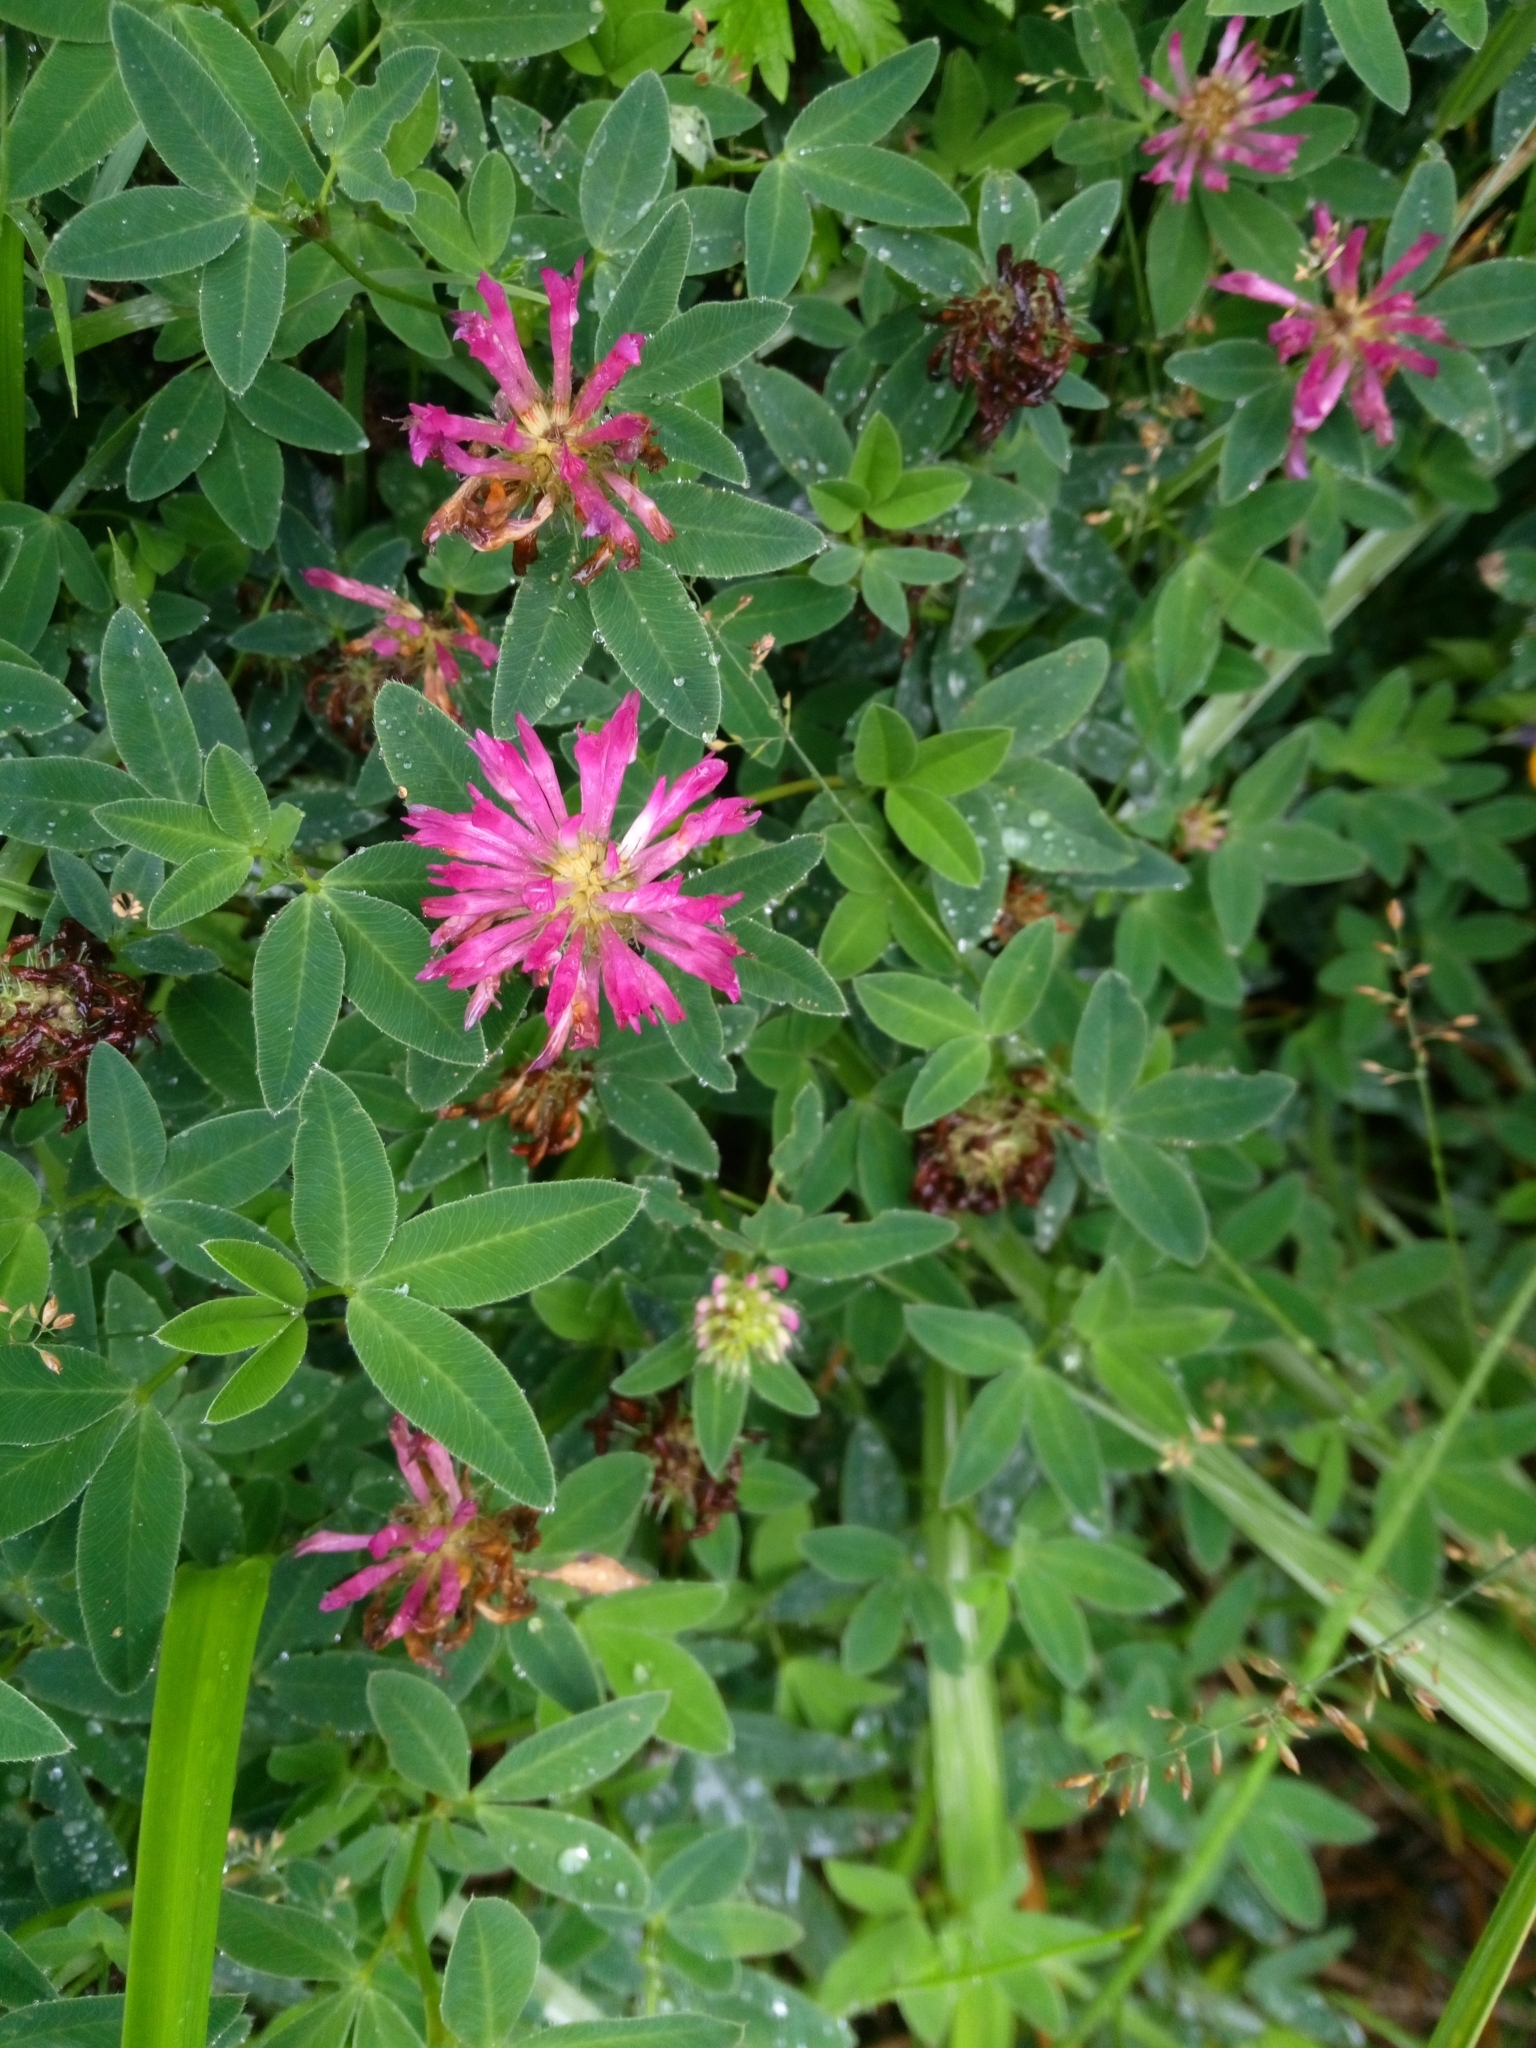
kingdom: Plantae
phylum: Tracheophyta
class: Magnoliopsida
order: Fabales
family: Fabaceae
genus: Trifolium
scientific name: Trifolium medium
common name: Zigzag clover
